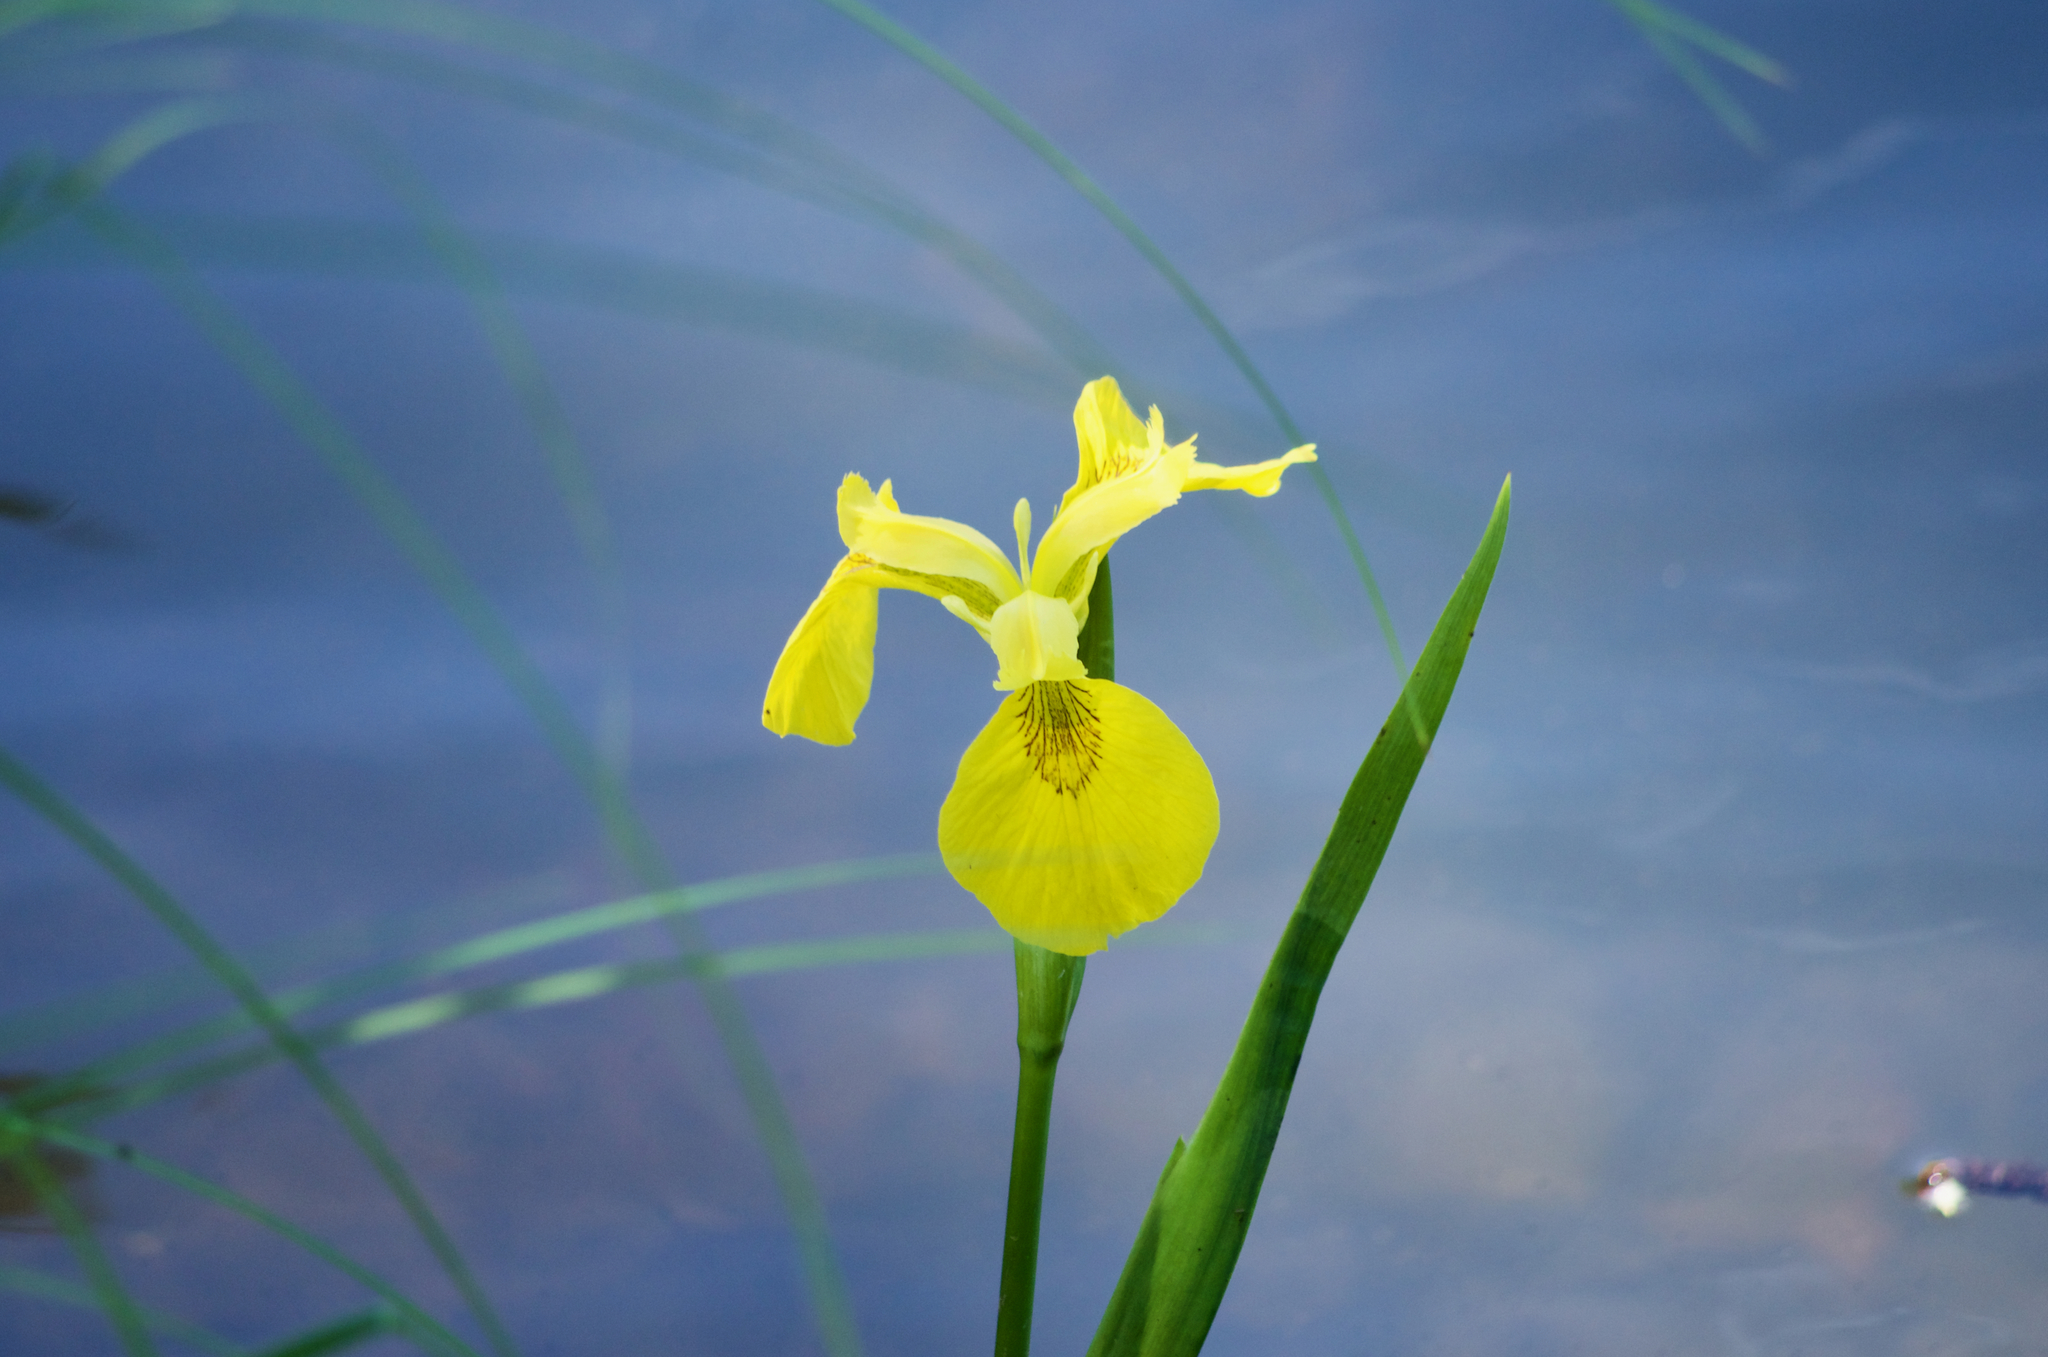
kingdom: Plantae
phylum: Tracheophyta
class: Liliopsida
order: Asparagales
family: Iridaceae
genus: Iris
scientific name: Iris pseudacorus
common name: Yellow flag
